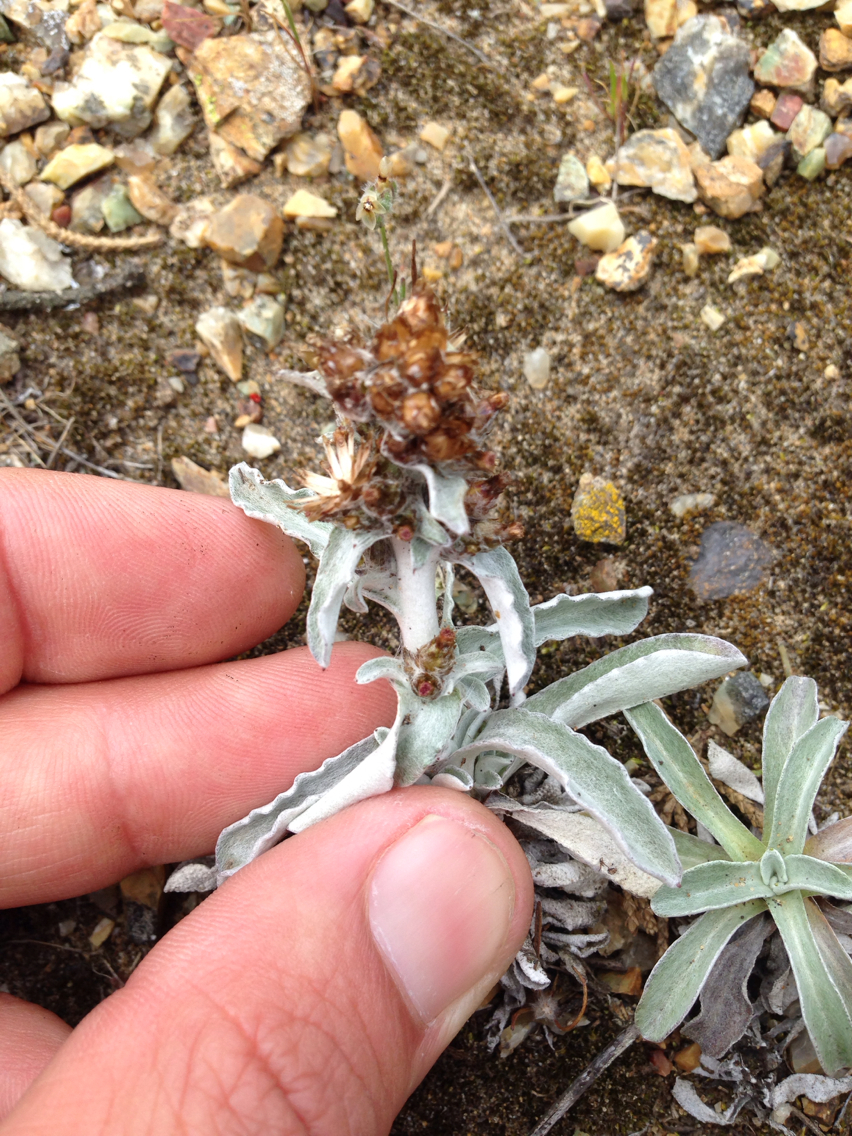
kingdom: Plantae
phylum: Tracheophyta
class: Magnoliopsida
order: Asterales
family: Asteraceae
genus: Gamochaeta
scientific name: Gamochaeta ustulata
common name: Pacific cudweed
